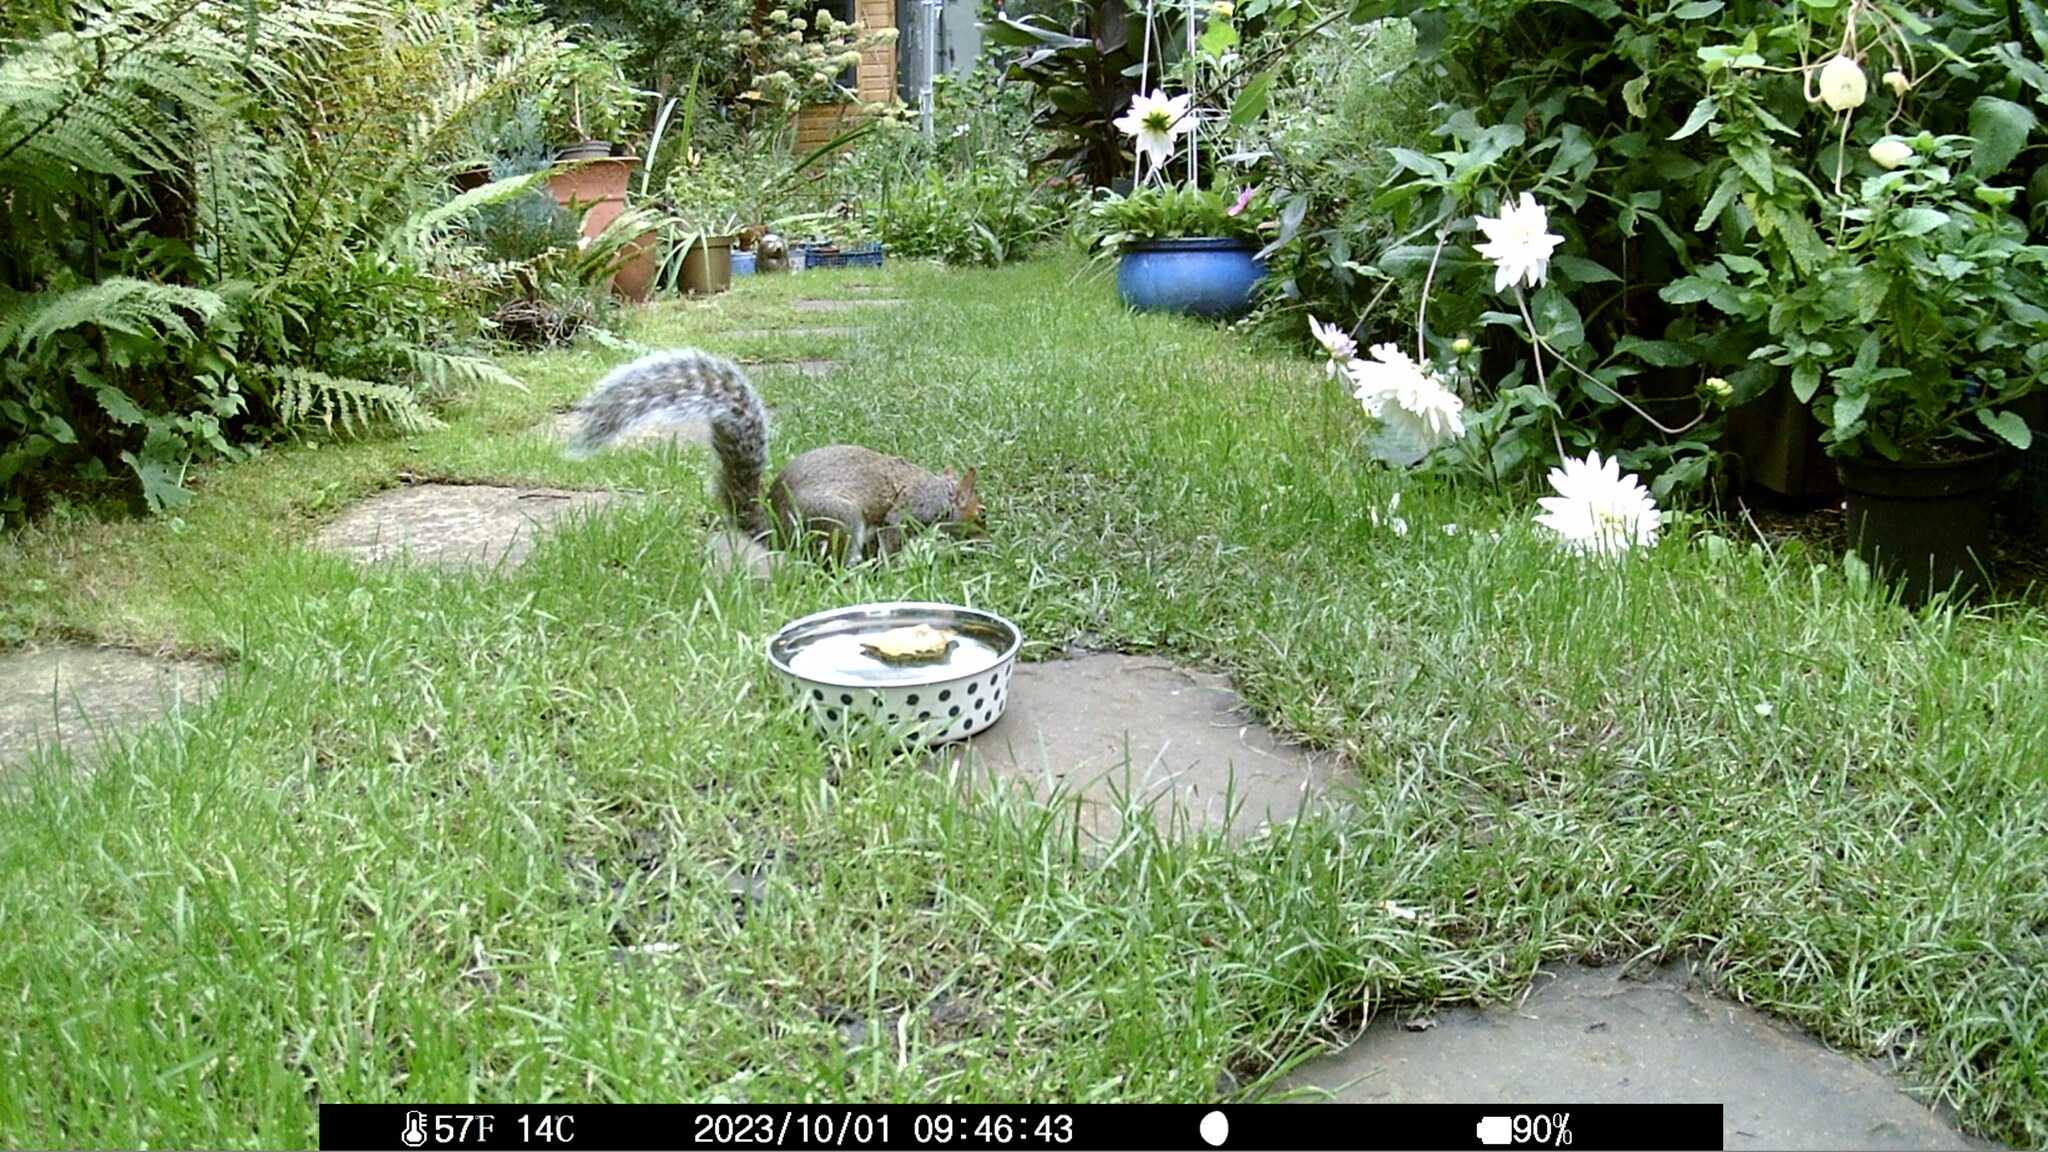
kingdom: Animalia
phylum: Chordata
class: Mammalia
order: Rodentia
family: Sciuridae
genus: Sciurus
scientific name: Sciurus carolinensis
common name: Eastern gray squirrel
